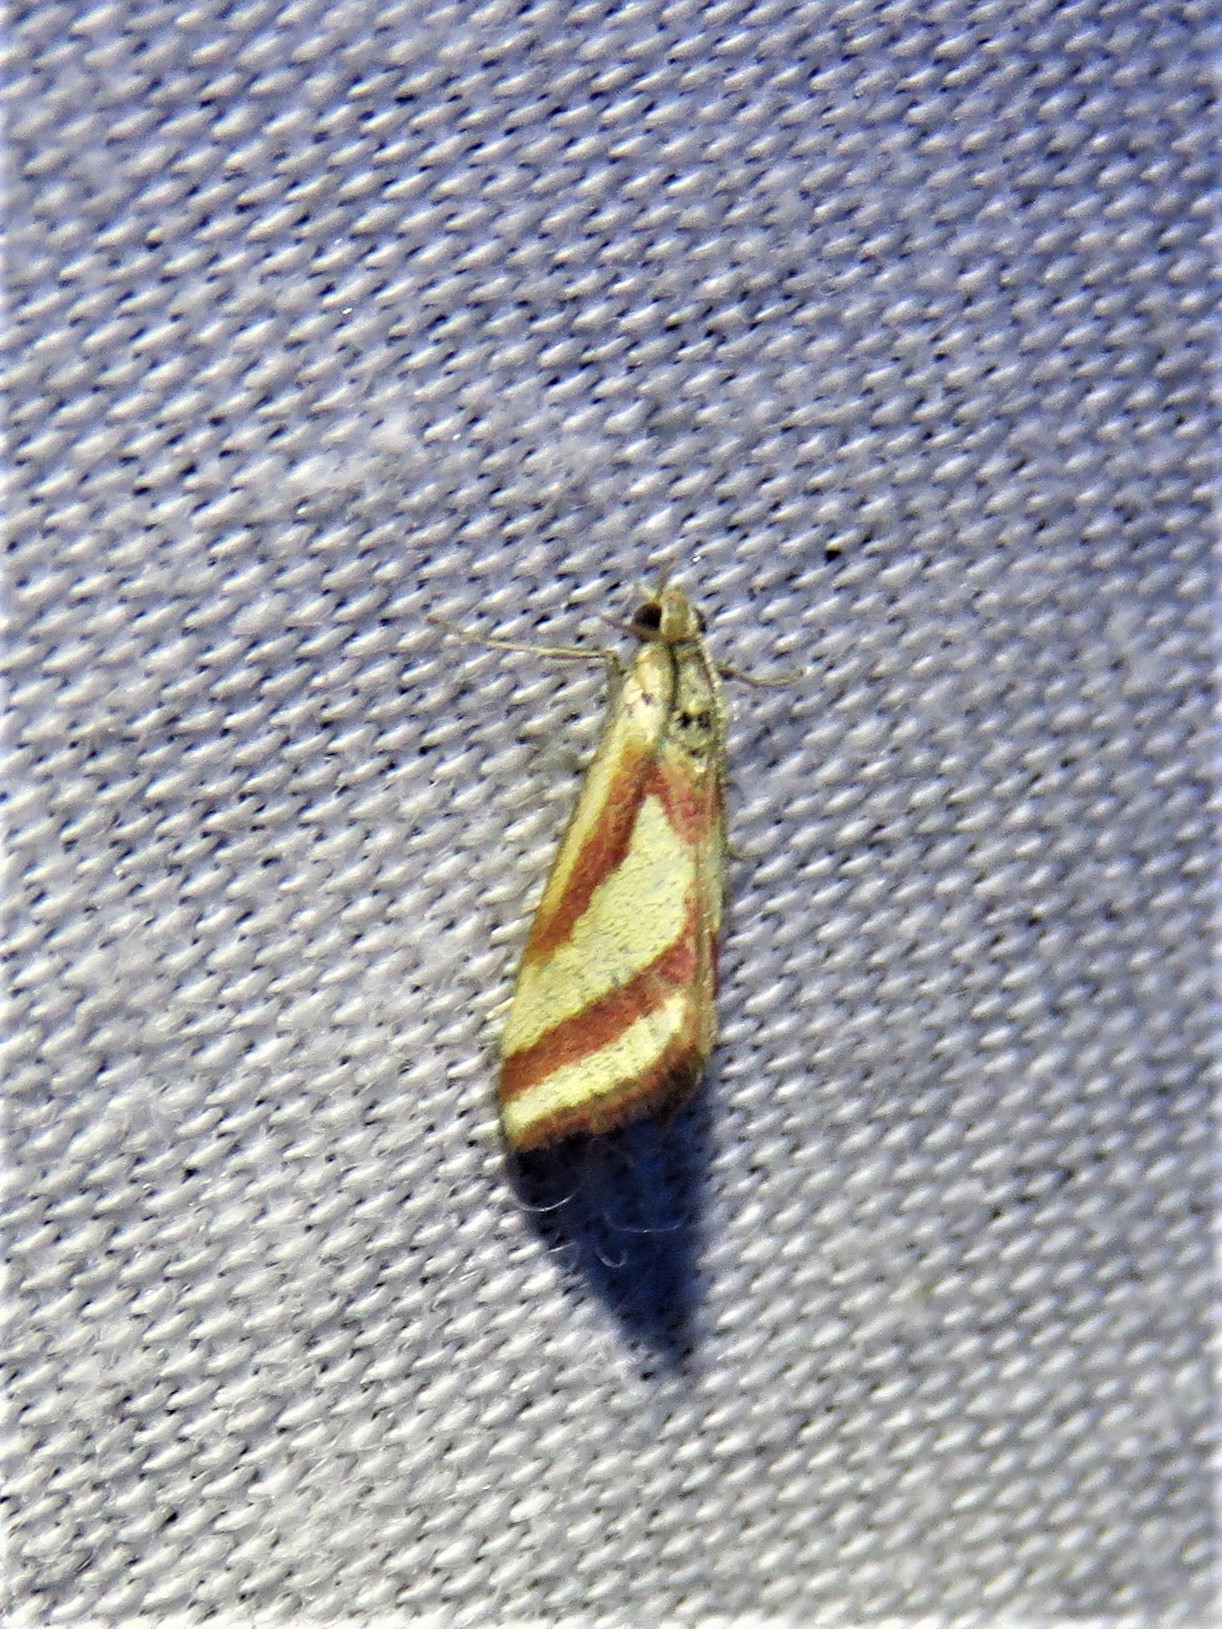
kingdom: Animalia
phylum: Arthropoda
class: Insecta
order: Lepidoptera
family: Crambidae
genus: Microtheoris
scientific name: Microtheoris vibicalis
